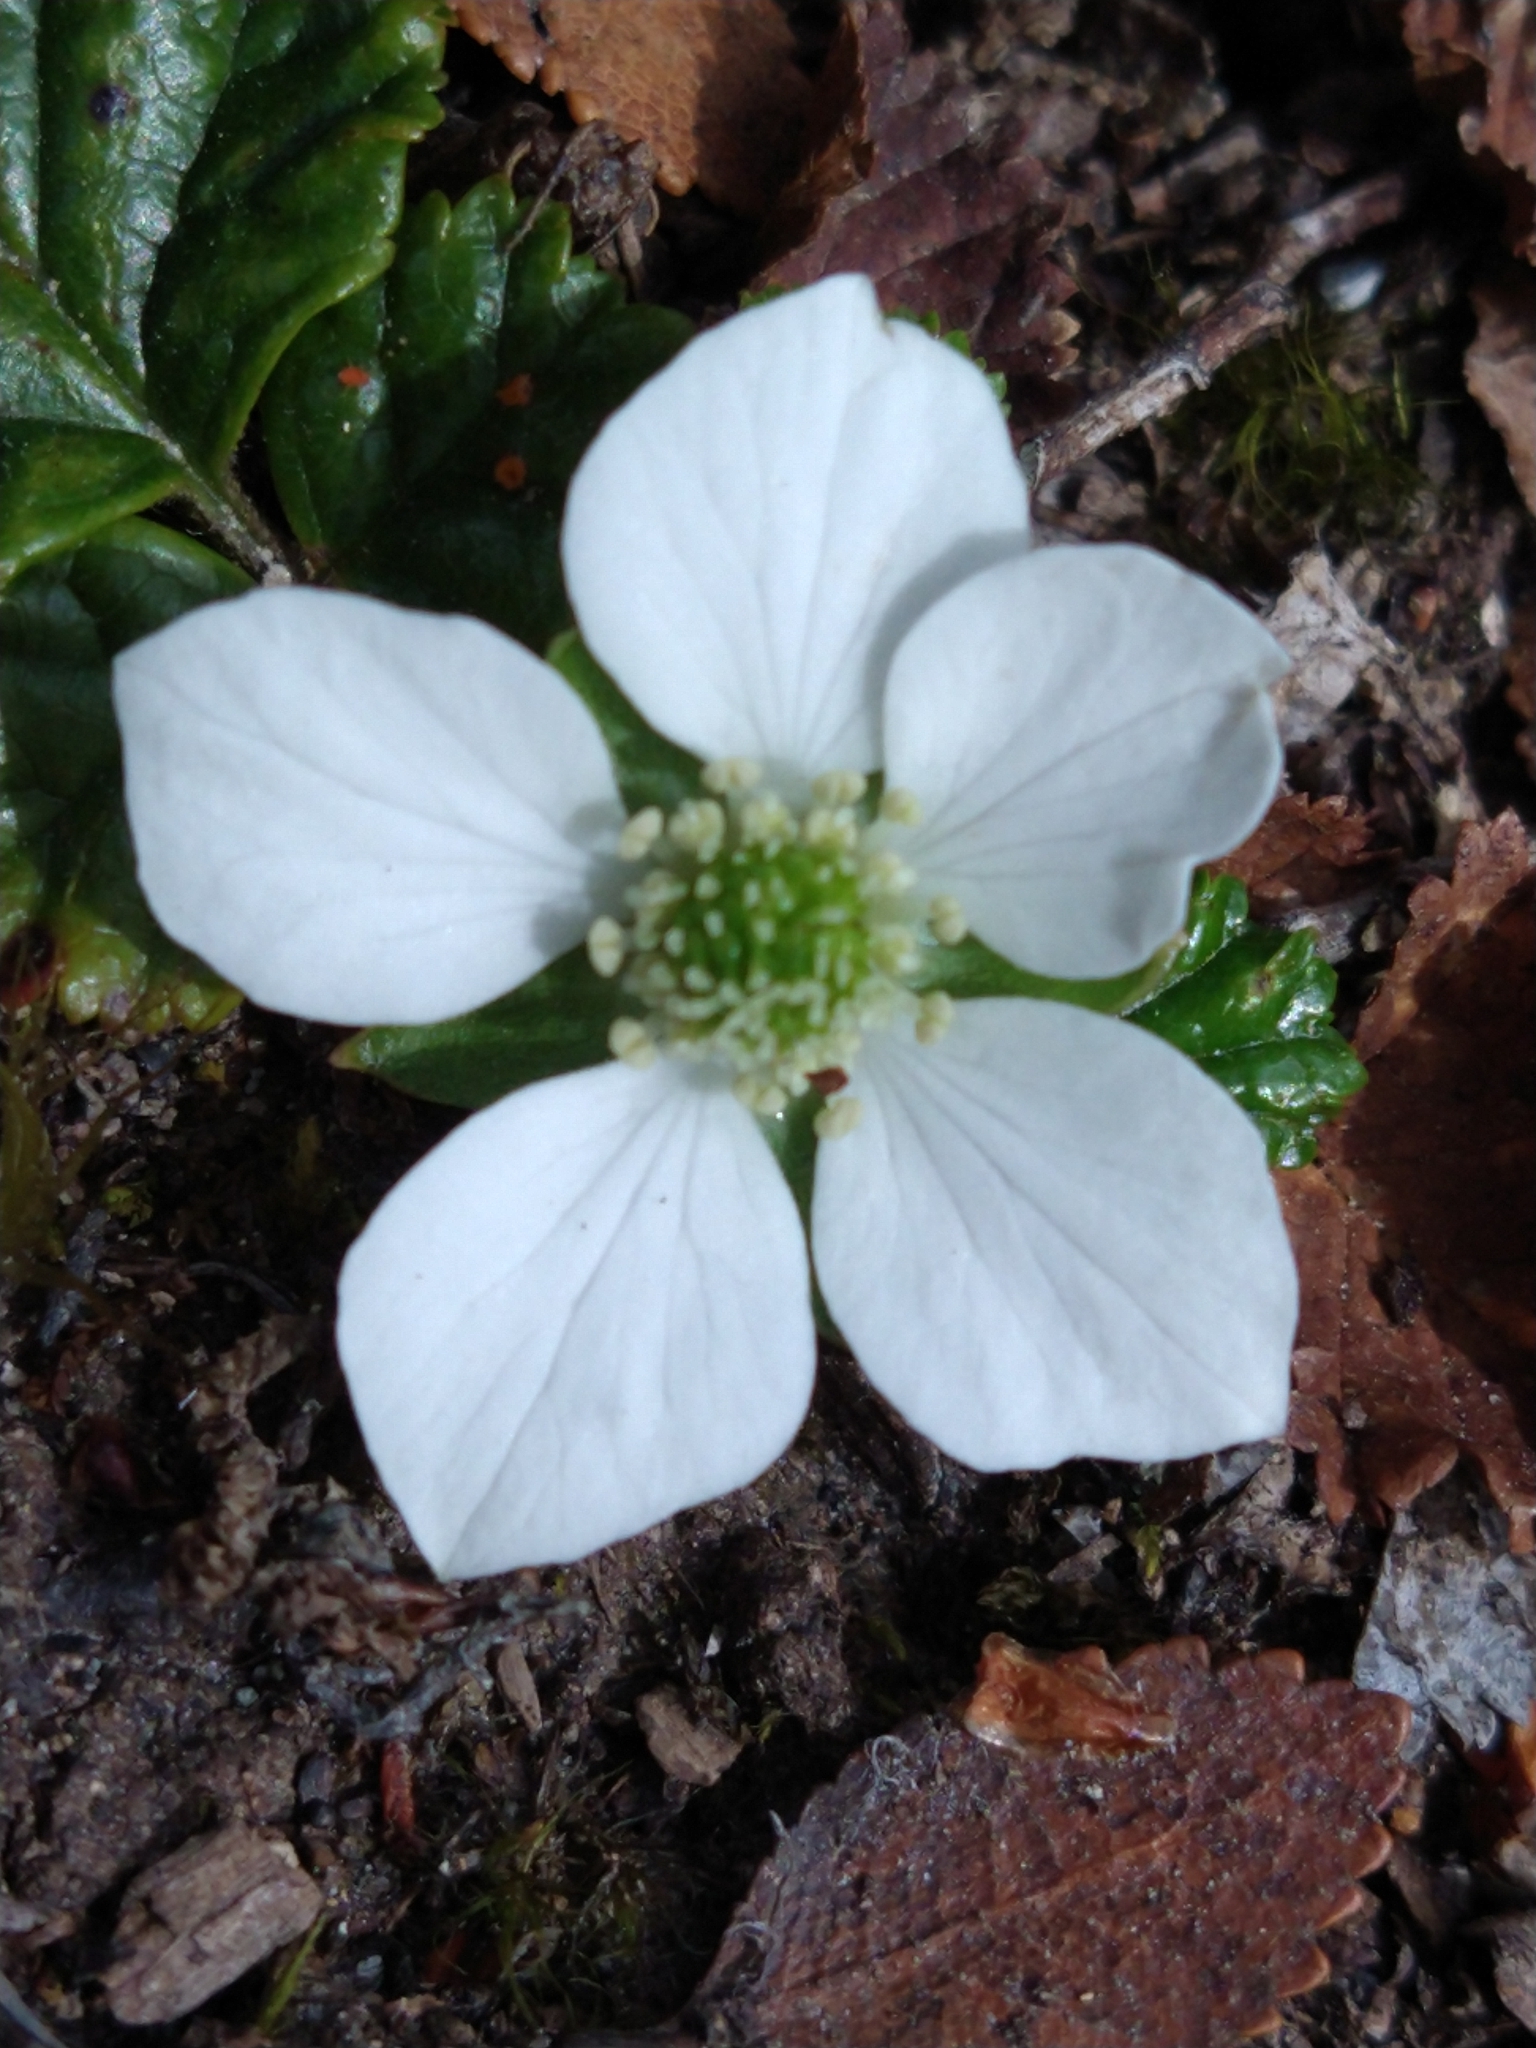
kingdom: Plantae
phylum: Tracheophyta
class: Magnoliopsida
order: Rosales
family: Rosaceae
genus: Rubus
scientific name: Rubus geoides
